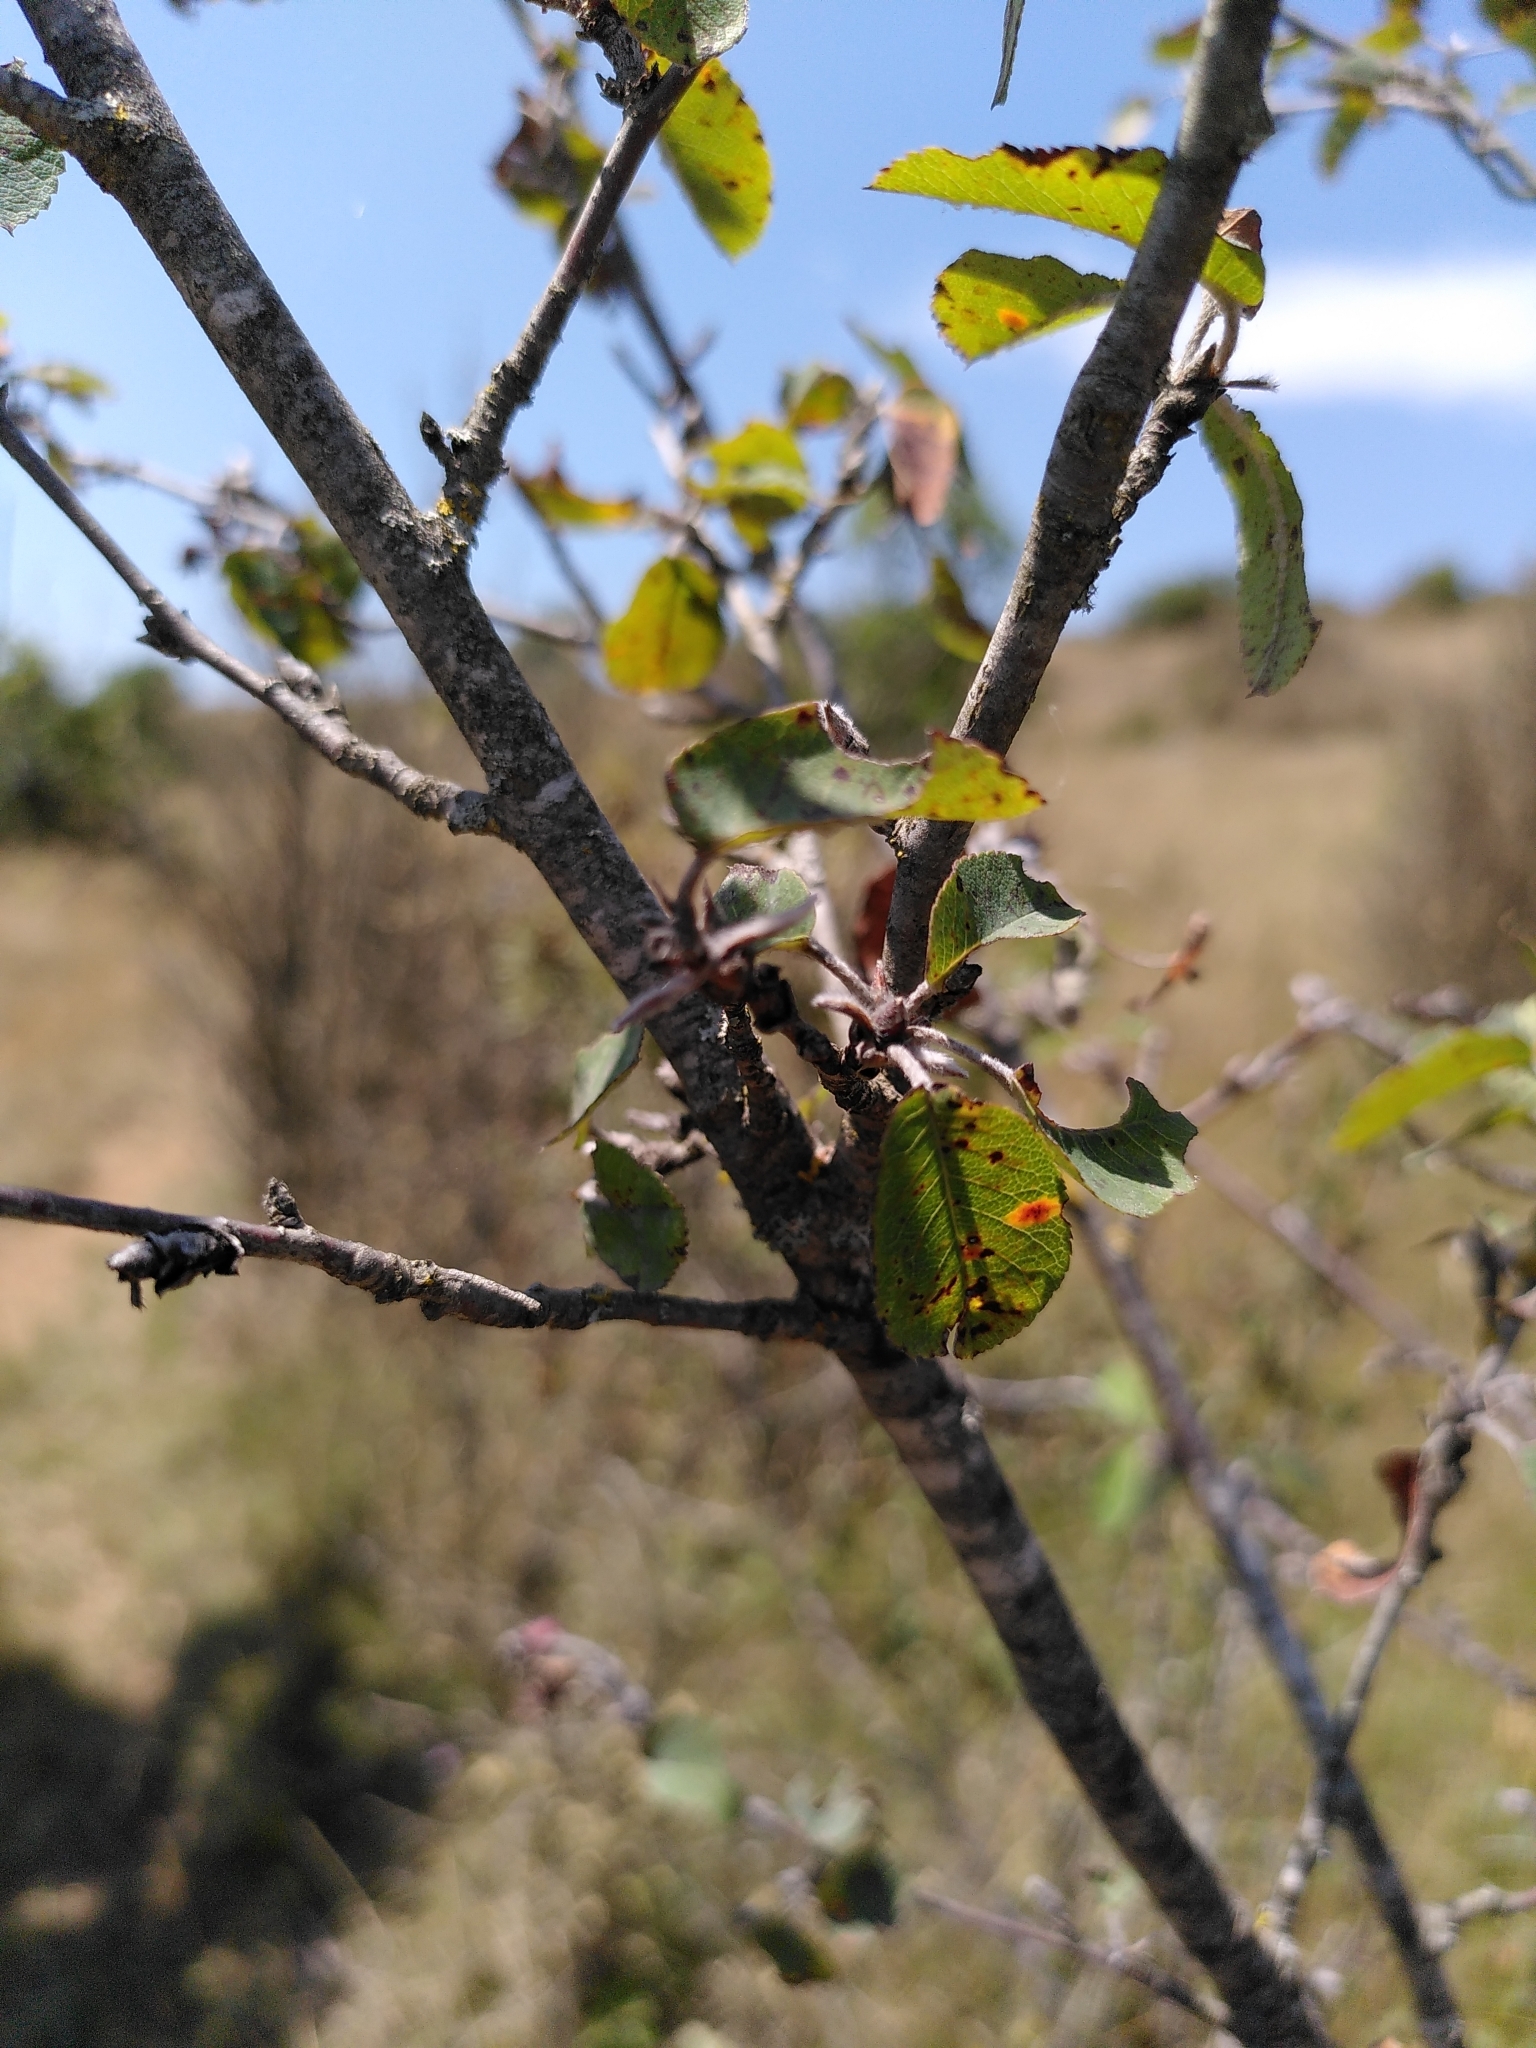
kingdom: Plantae
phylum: Tracheophyta
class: Magnoliopsida
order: Buxales
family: Buxaceae
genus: Buxus
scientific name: Buxus sempervirens
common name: Box
